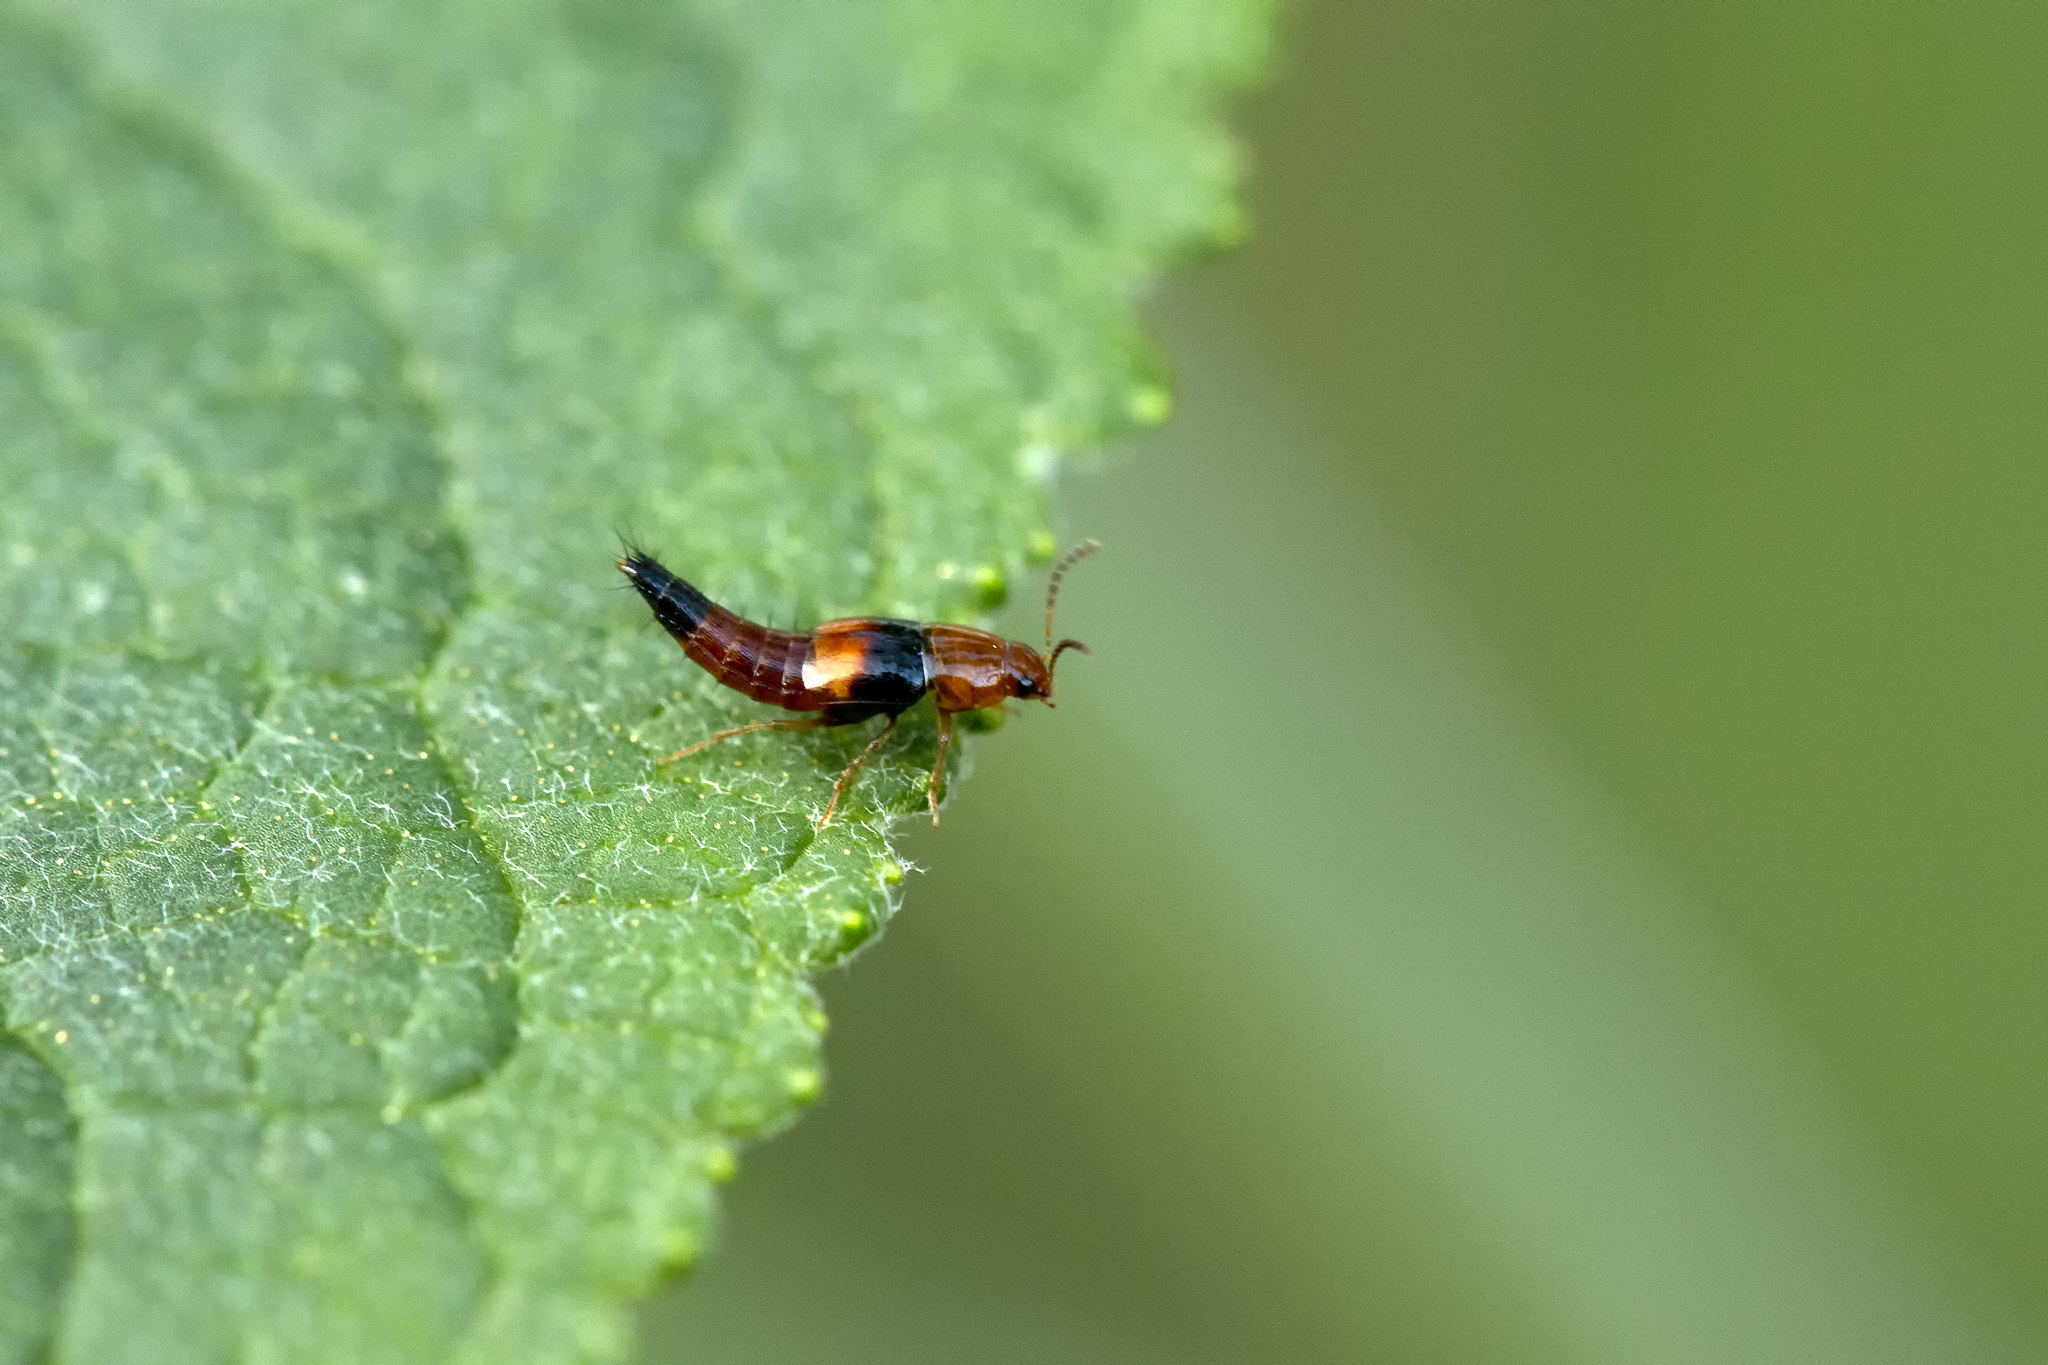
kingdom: Animalia
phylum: Arthropoda
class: Insecta
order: Coleoptera
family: Staphylinidae
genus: Tachyporus
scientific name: Tachyporus obtusus
